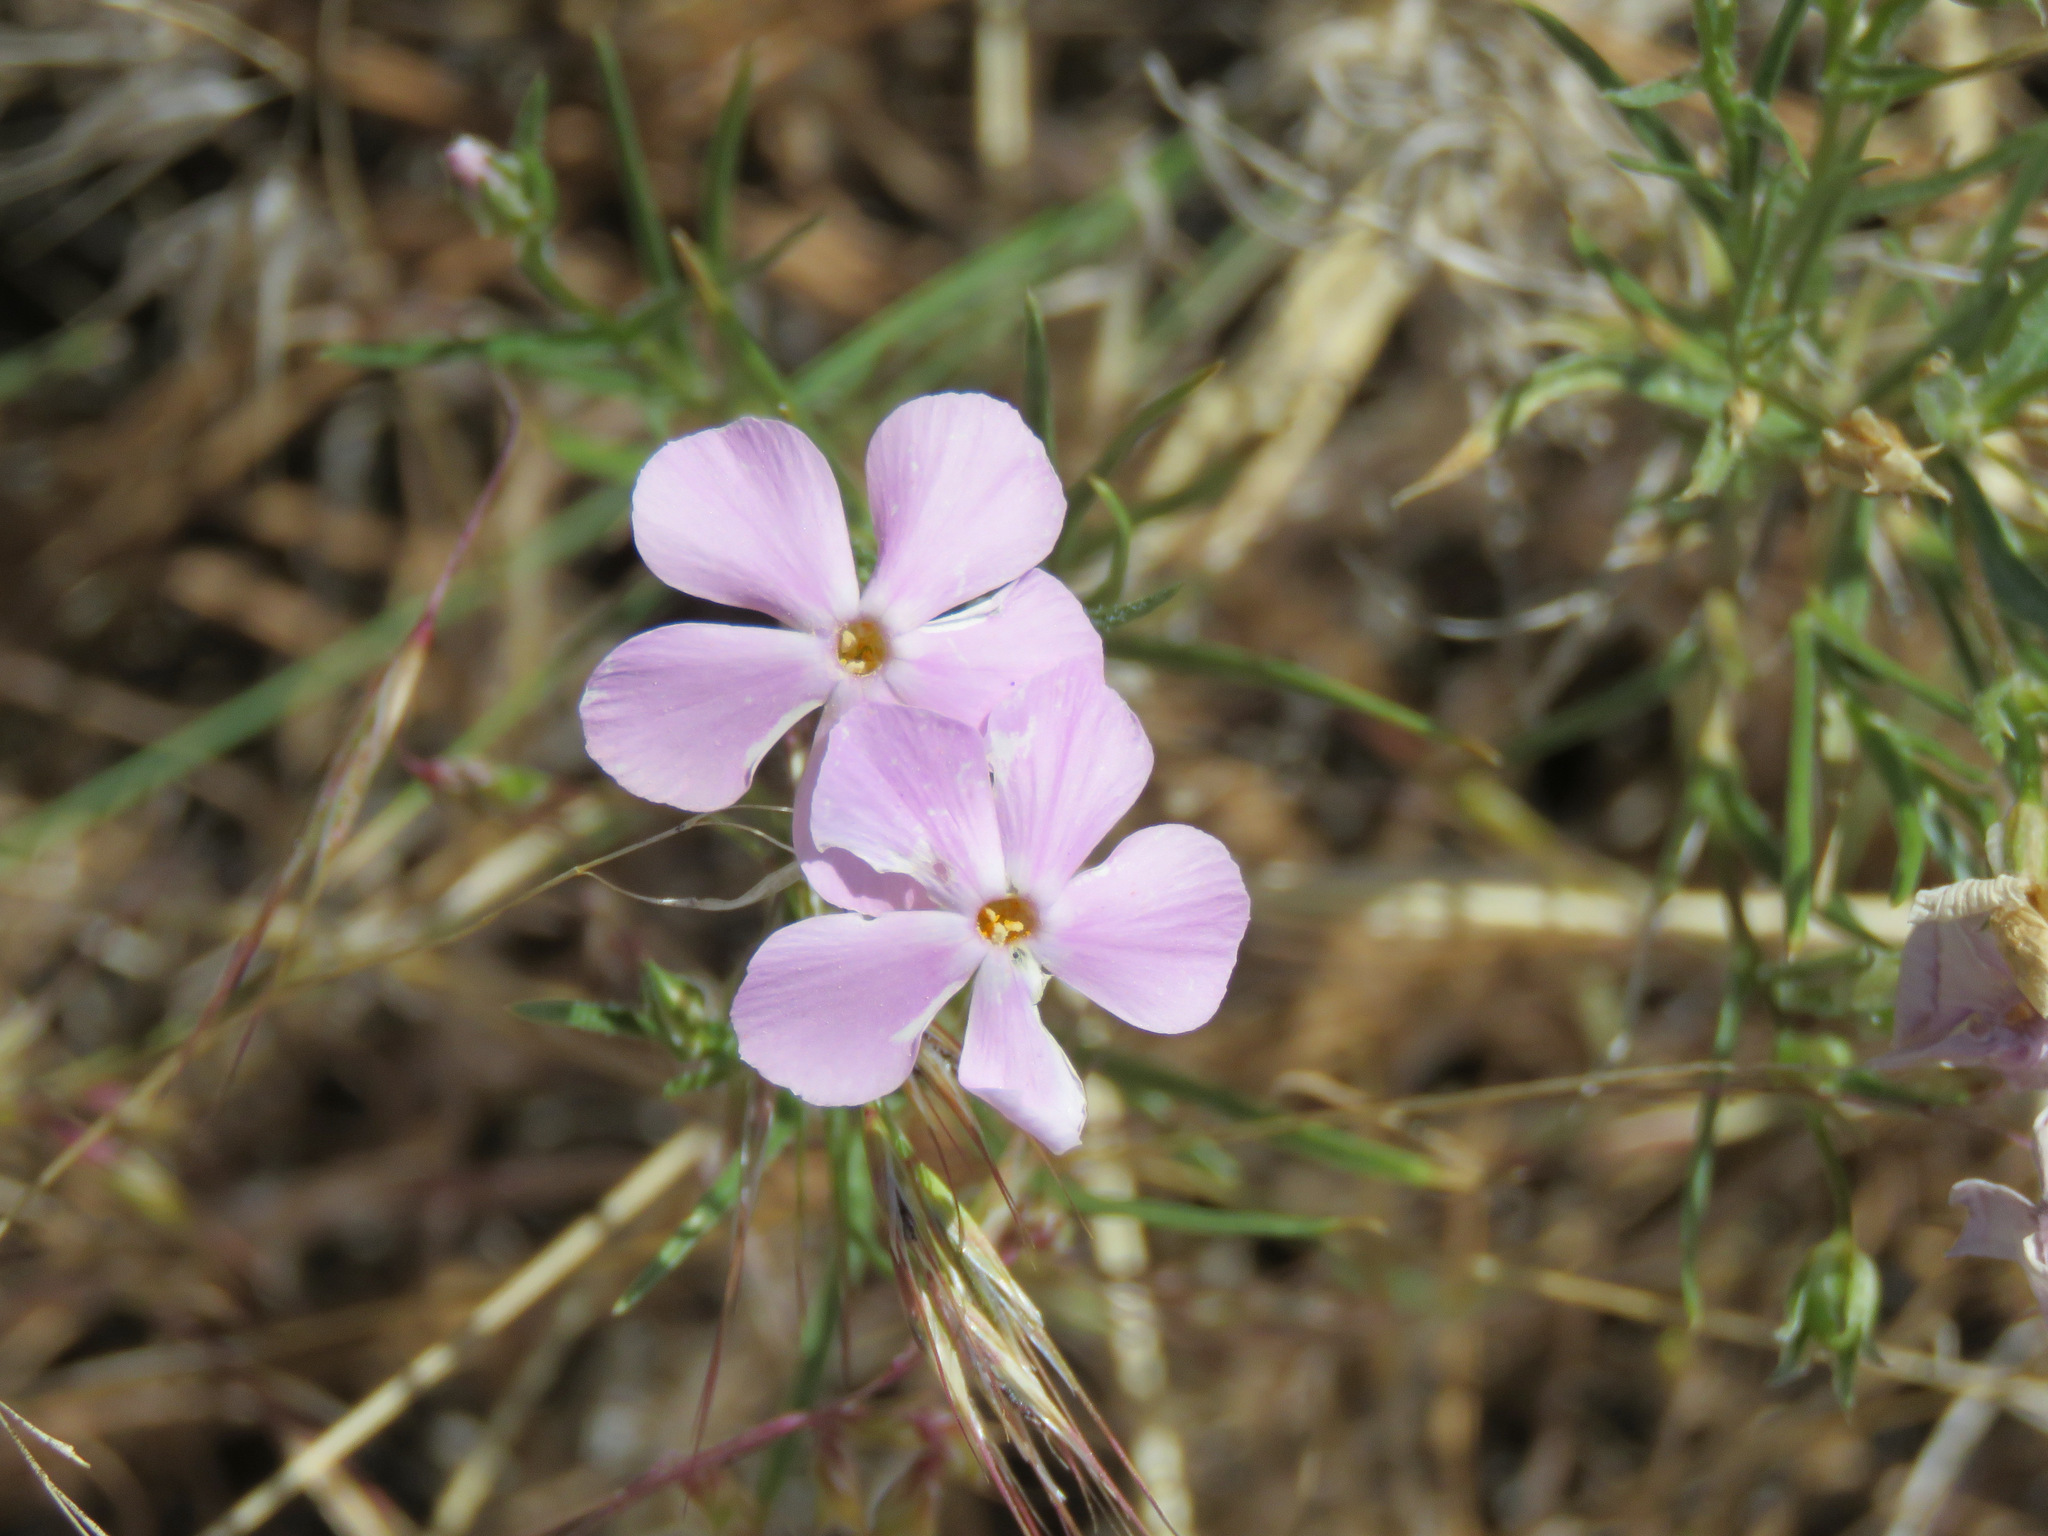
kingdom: Plantae
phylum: Tracheophyta
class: Magnoliopsida
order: Ericales
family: Polemoniaceae
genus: Phlox
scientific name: Phlox longifolia
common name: Longleaf phlox
